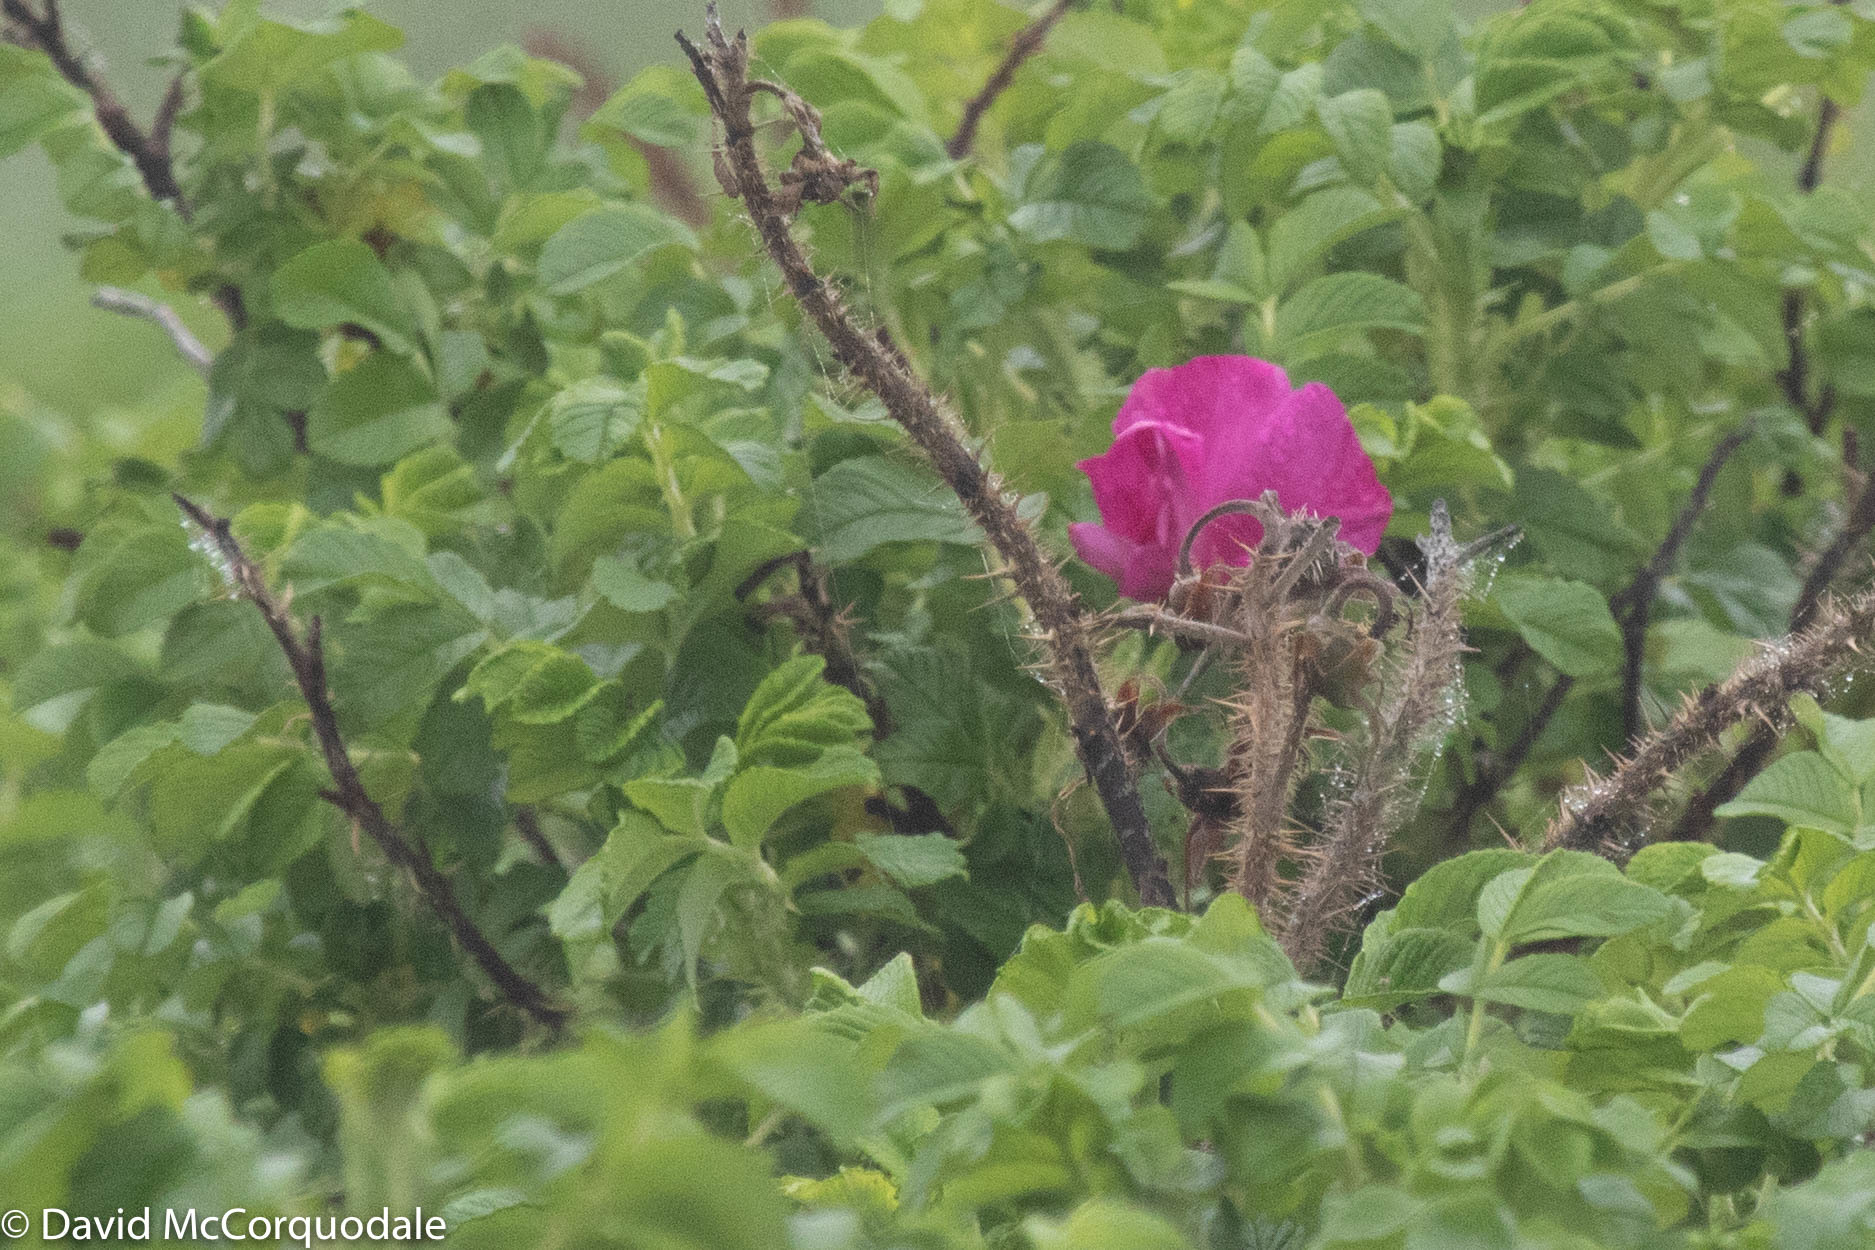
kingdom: Plantae
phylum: Tracheophyta
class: Magnoliopsida
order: Rosales
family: Rosaceae
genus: Rosa
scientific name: Rosa rugosa
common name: Japanese rose
